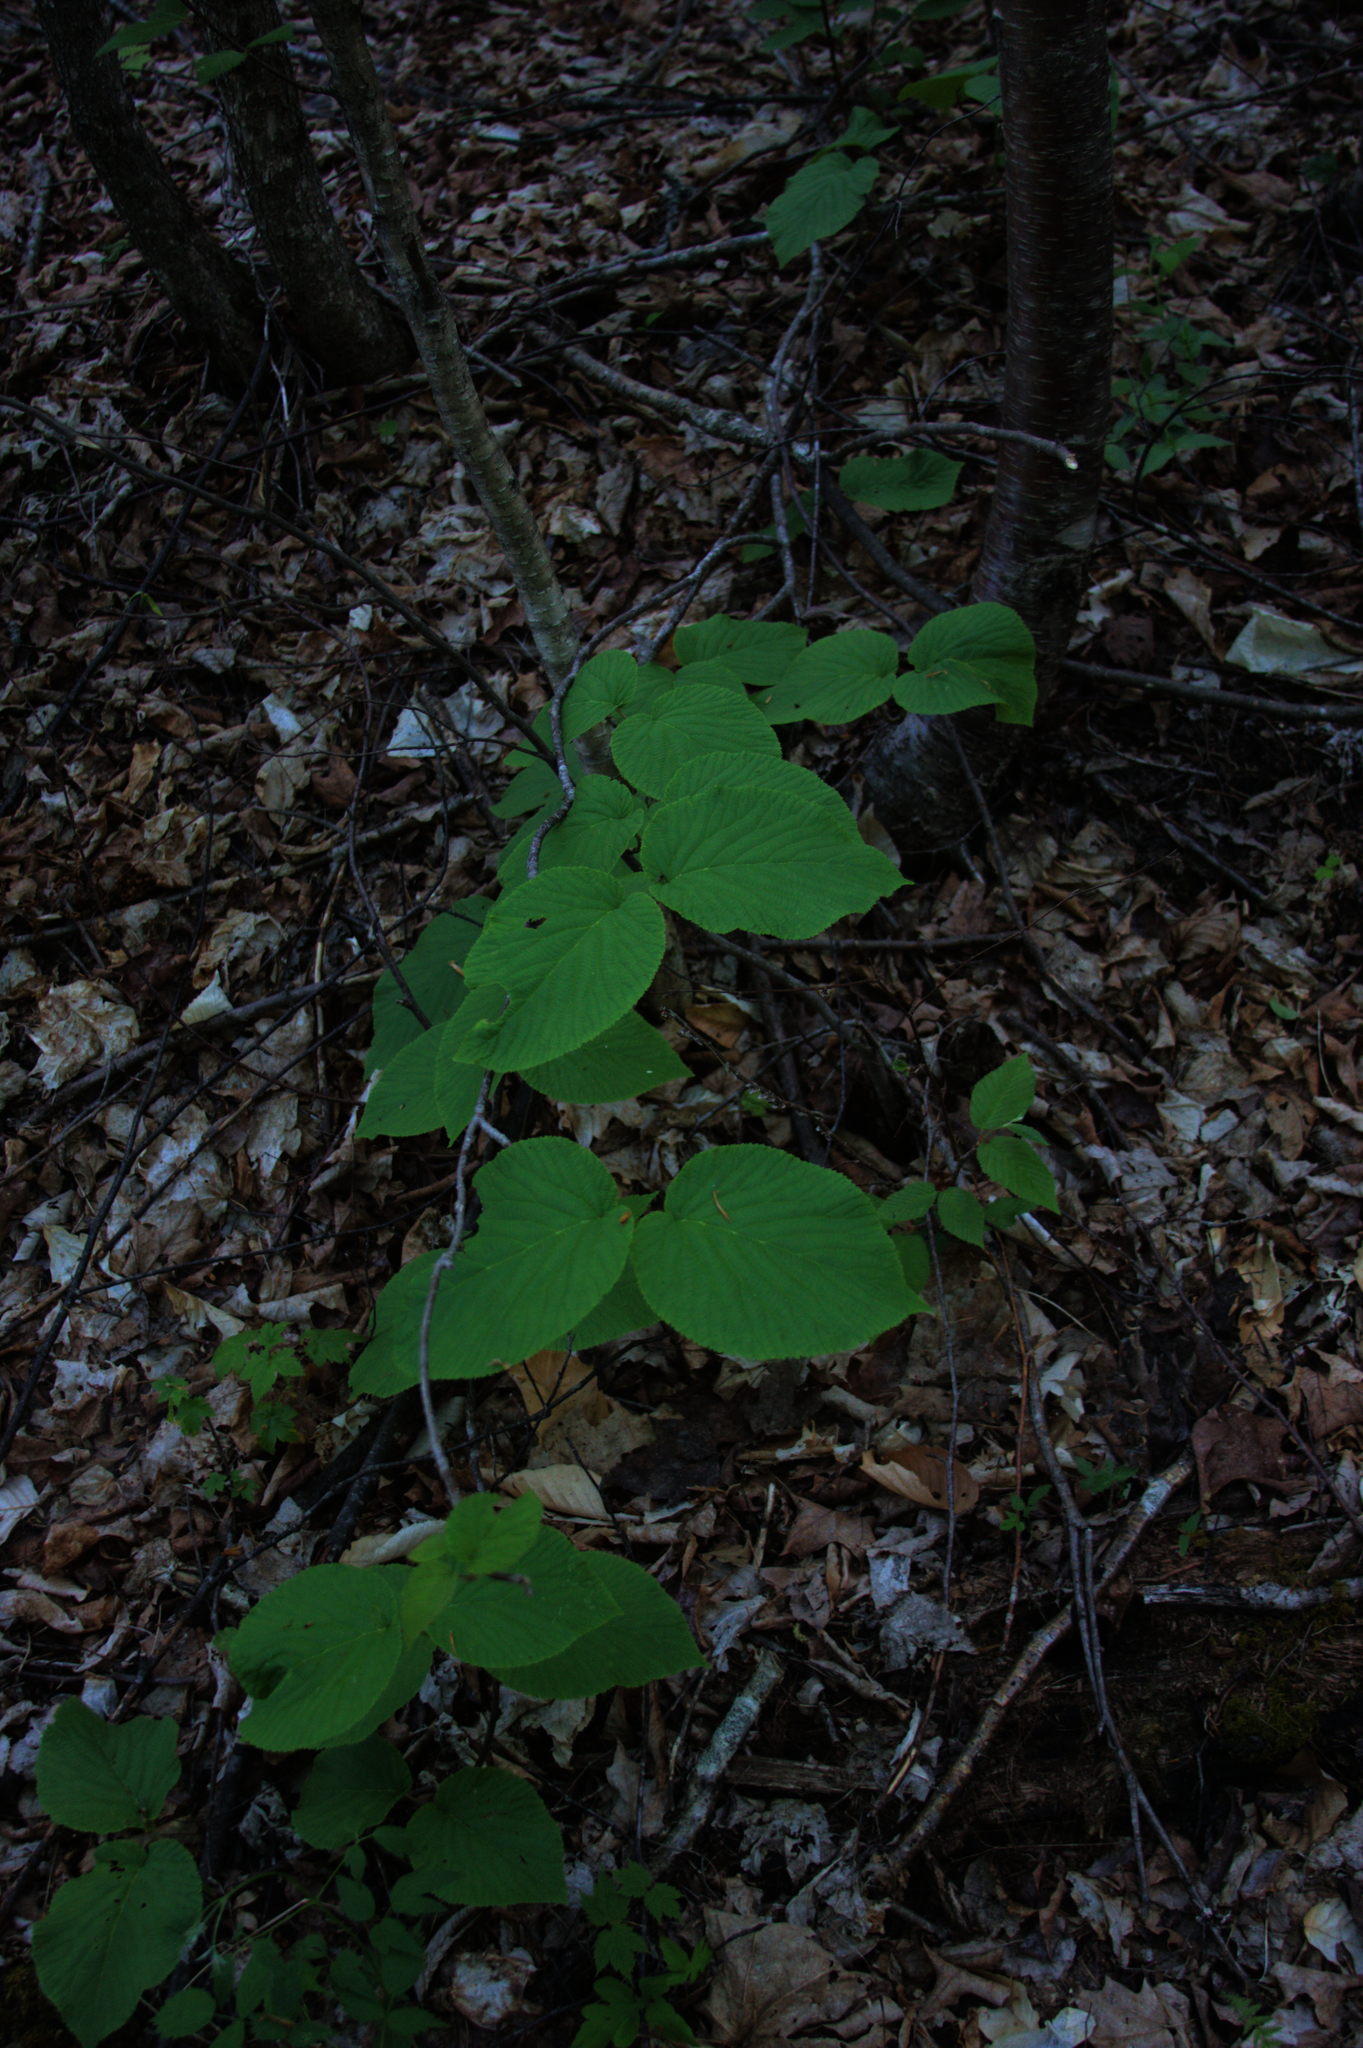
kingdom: Plantae
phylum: Tracheophyta
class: Magnoliopsida
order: Dipsacales
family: Viburnaceae
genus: Viburnum
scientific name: Viburnum lantanoides
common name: Hobblebush
